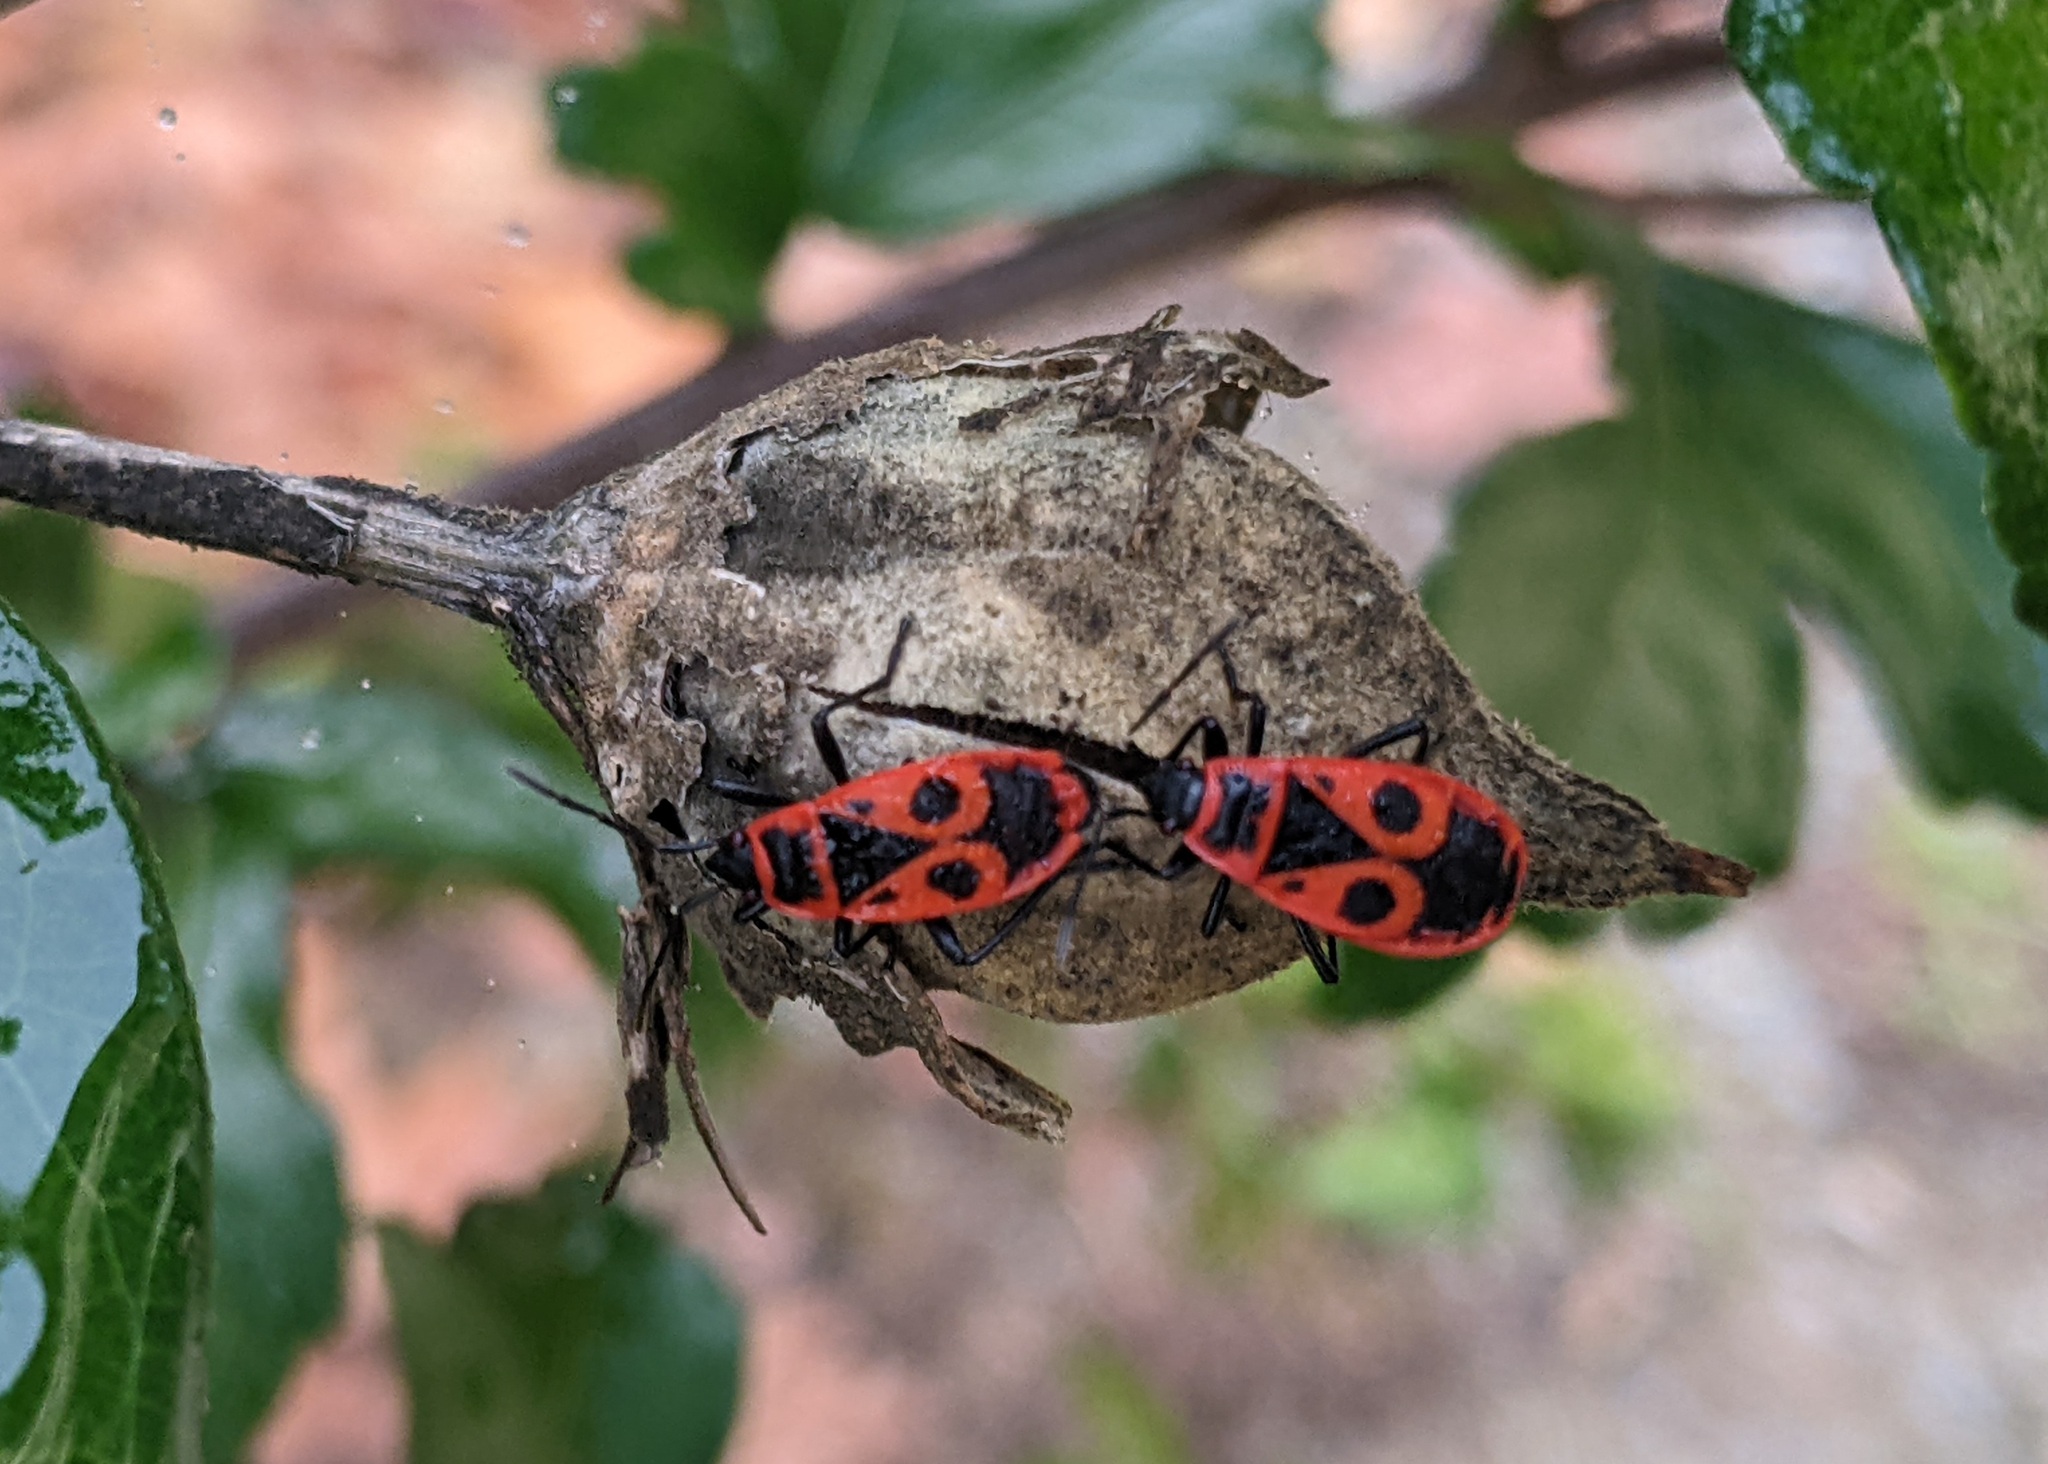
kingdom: Animalia
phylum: Arthropoda
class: Insecta
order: Hemiptera
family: Pyrrhocoridae
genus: Pyrrhocoris
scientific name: Pyrrhocoris apterus
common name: Firebug
